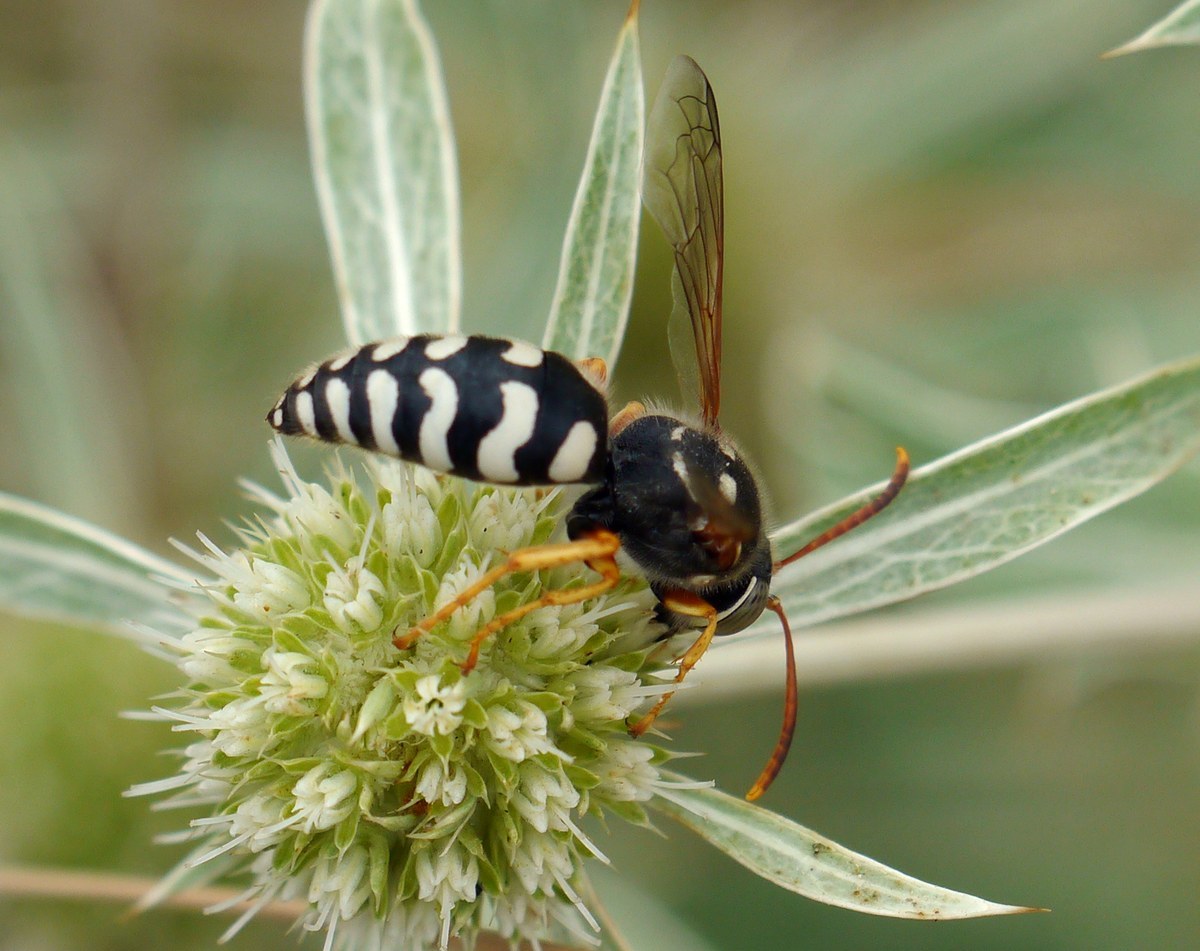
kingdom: Animalia
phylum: Arthropoda
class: Insecta
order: Hymenoptera
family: Crabronidae
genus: Stizus
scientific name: Stizus bipunctatus
